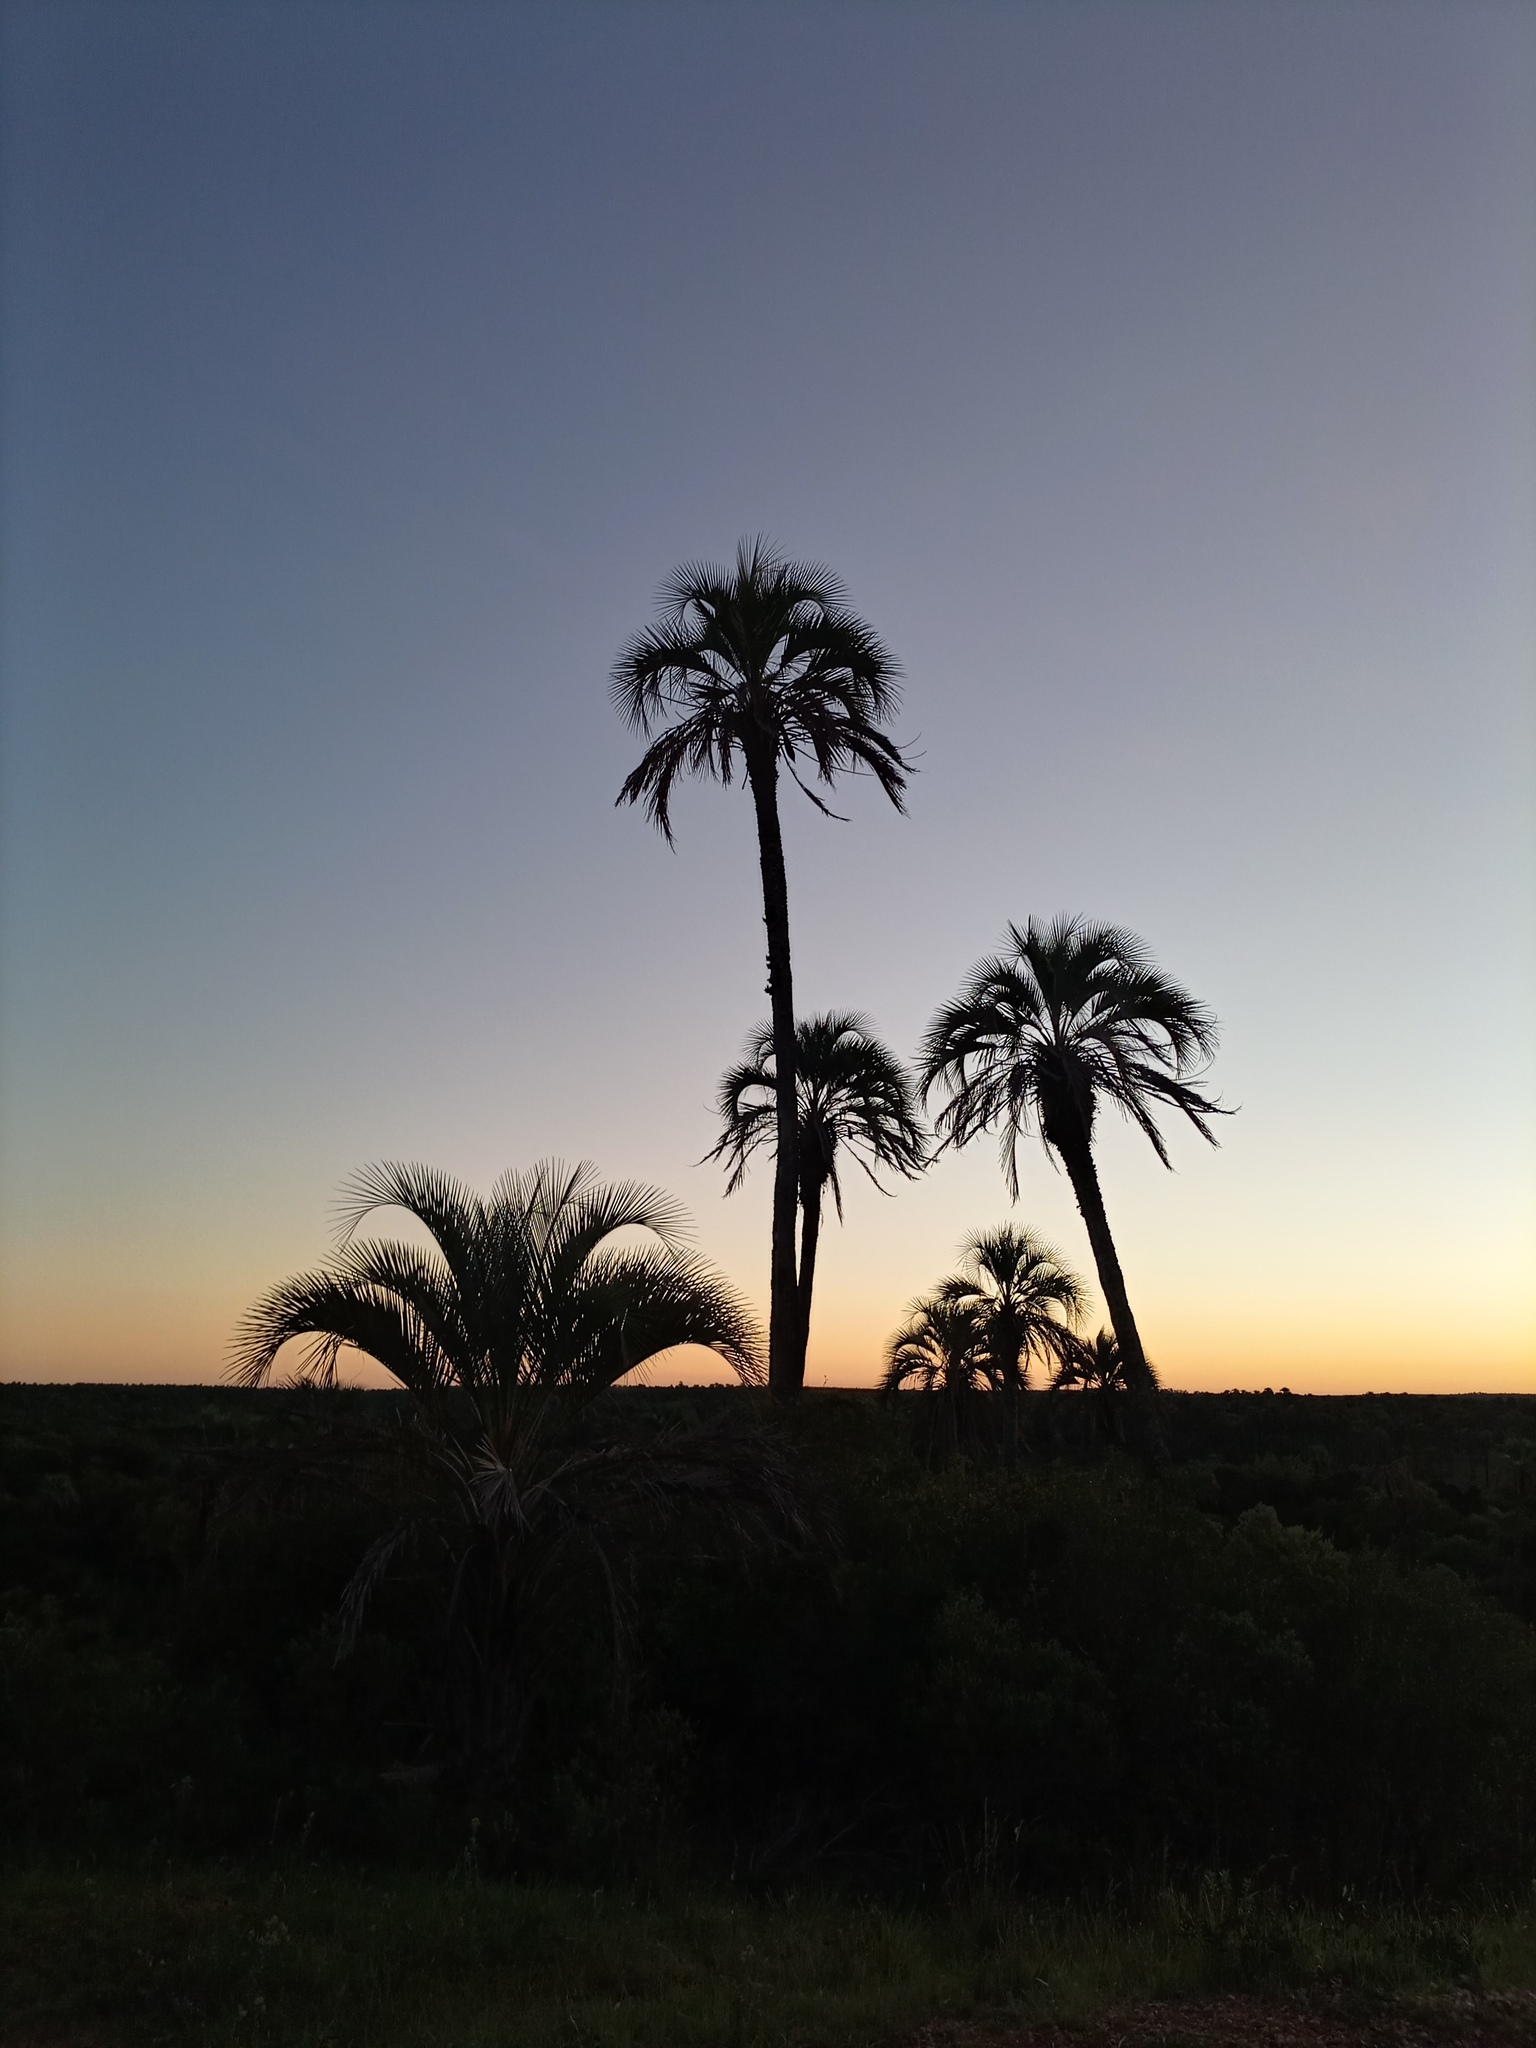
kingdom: Plantae
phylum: Tracheophyta
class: Liliopsida
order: Arecales
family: Arecaceae
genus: Butia
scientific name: Butia yatay
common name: Yatay palm
